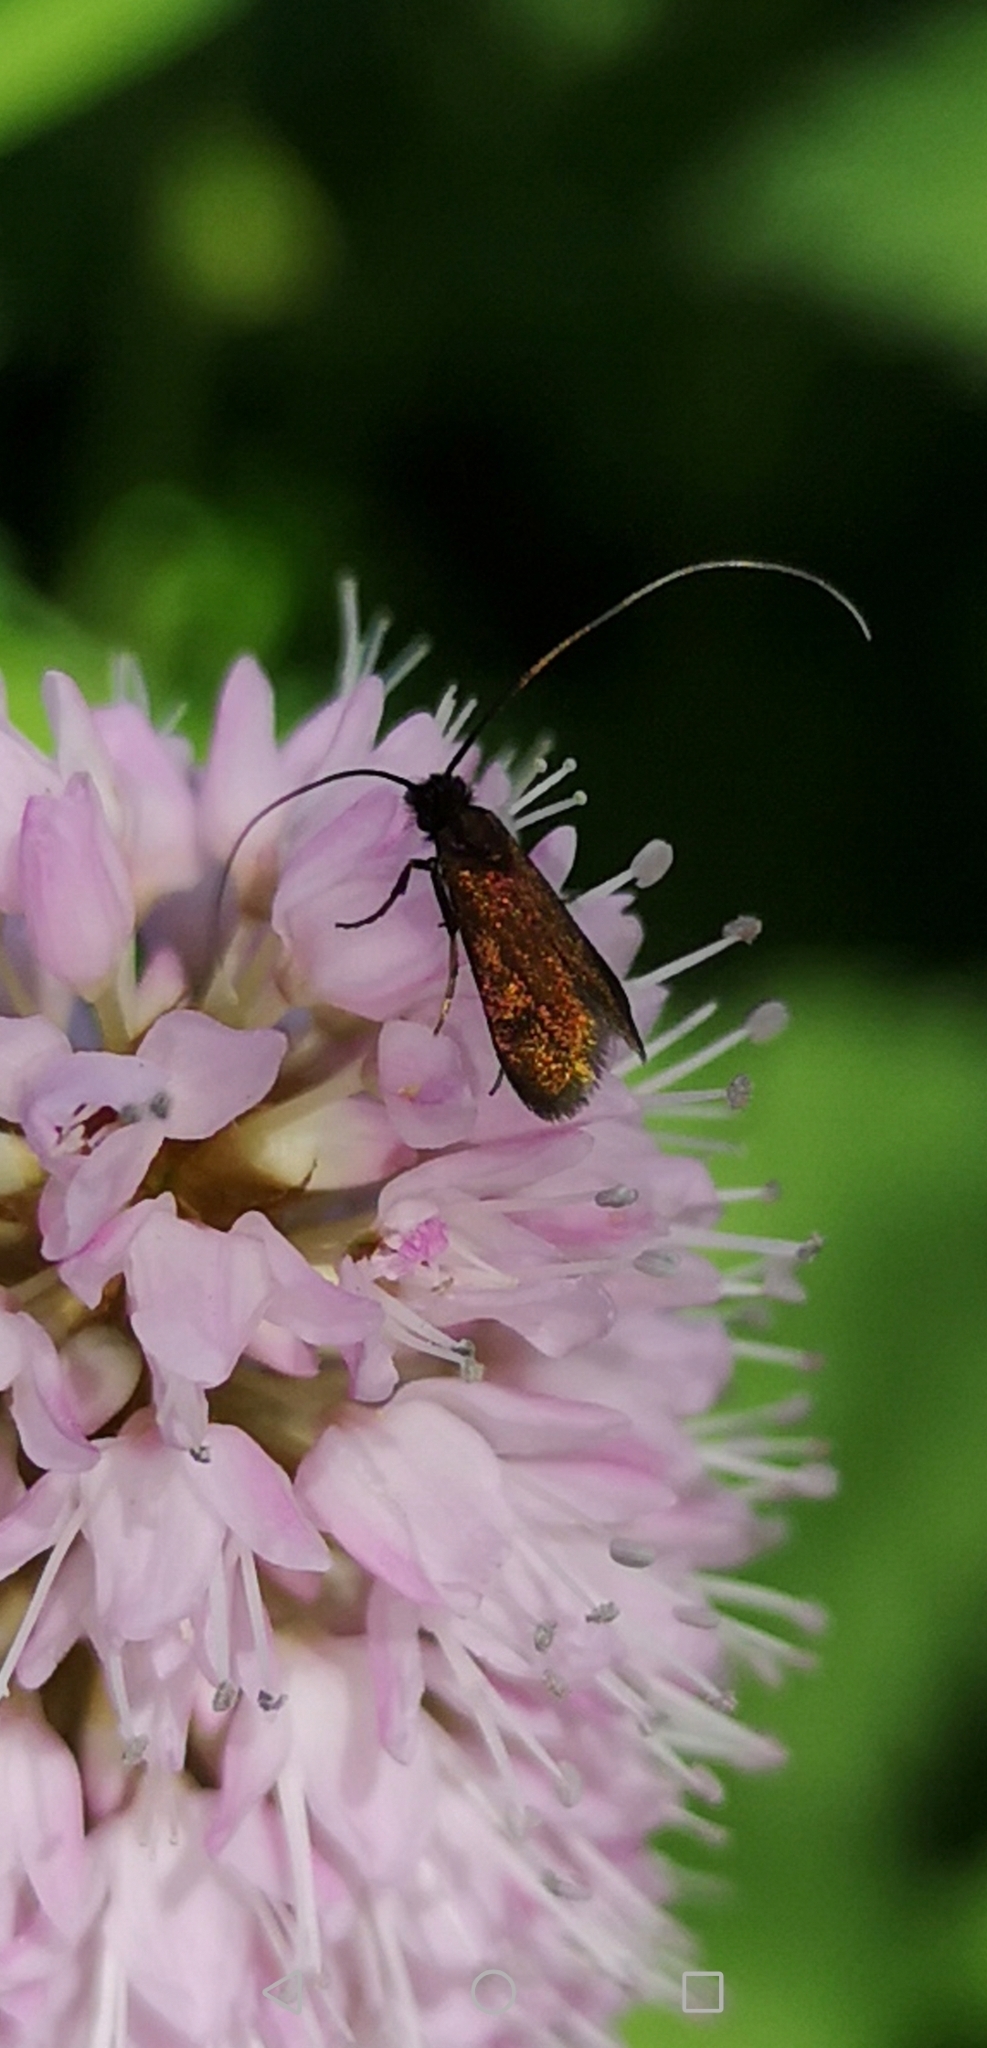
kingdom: Animalia
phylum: Arthropoda
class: Insecta
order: Lepidoptera
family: Adelidae
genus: Cauchas
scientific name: Cauchas rufimitrella
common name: Meadow long-horn
